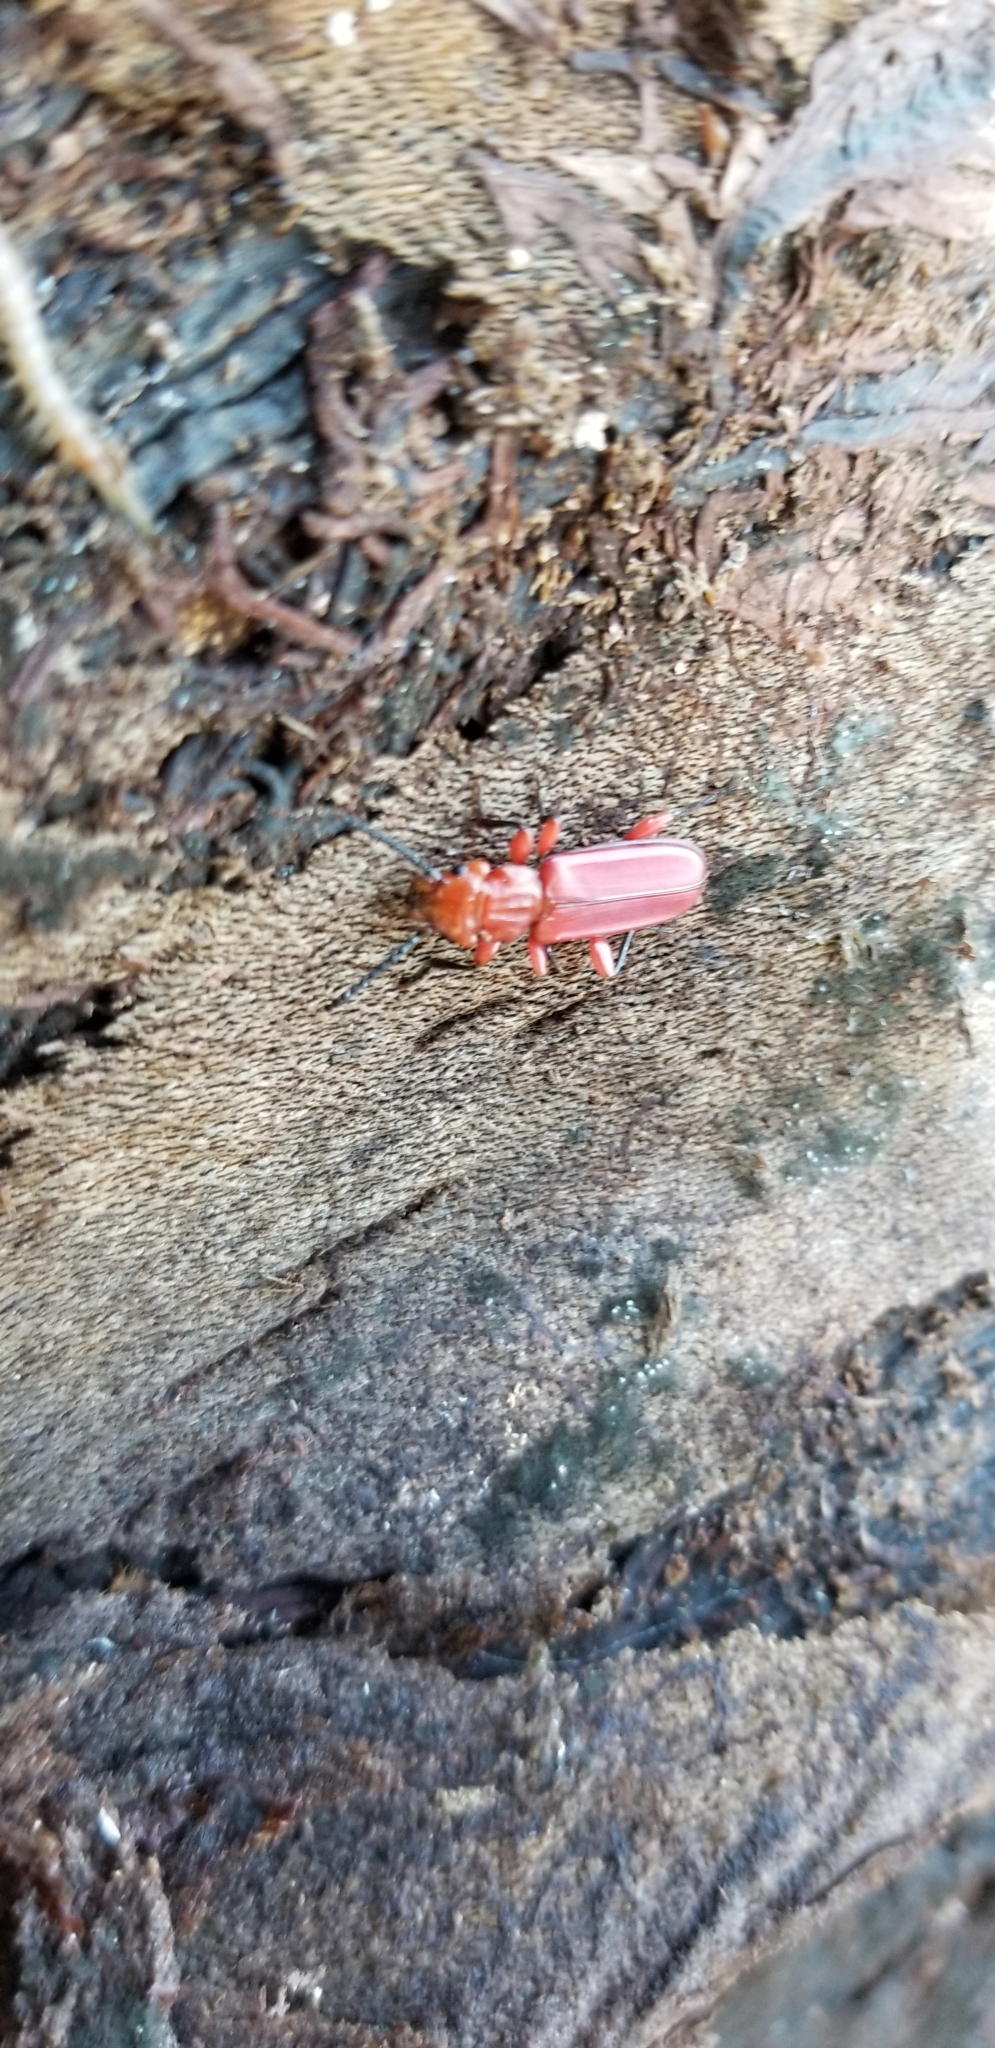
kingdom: Animalia
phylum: Arthropoda
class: Insecta
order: Coleoptera
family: Cucujidae
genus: Cucujus
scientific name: Cucujus clavipes
